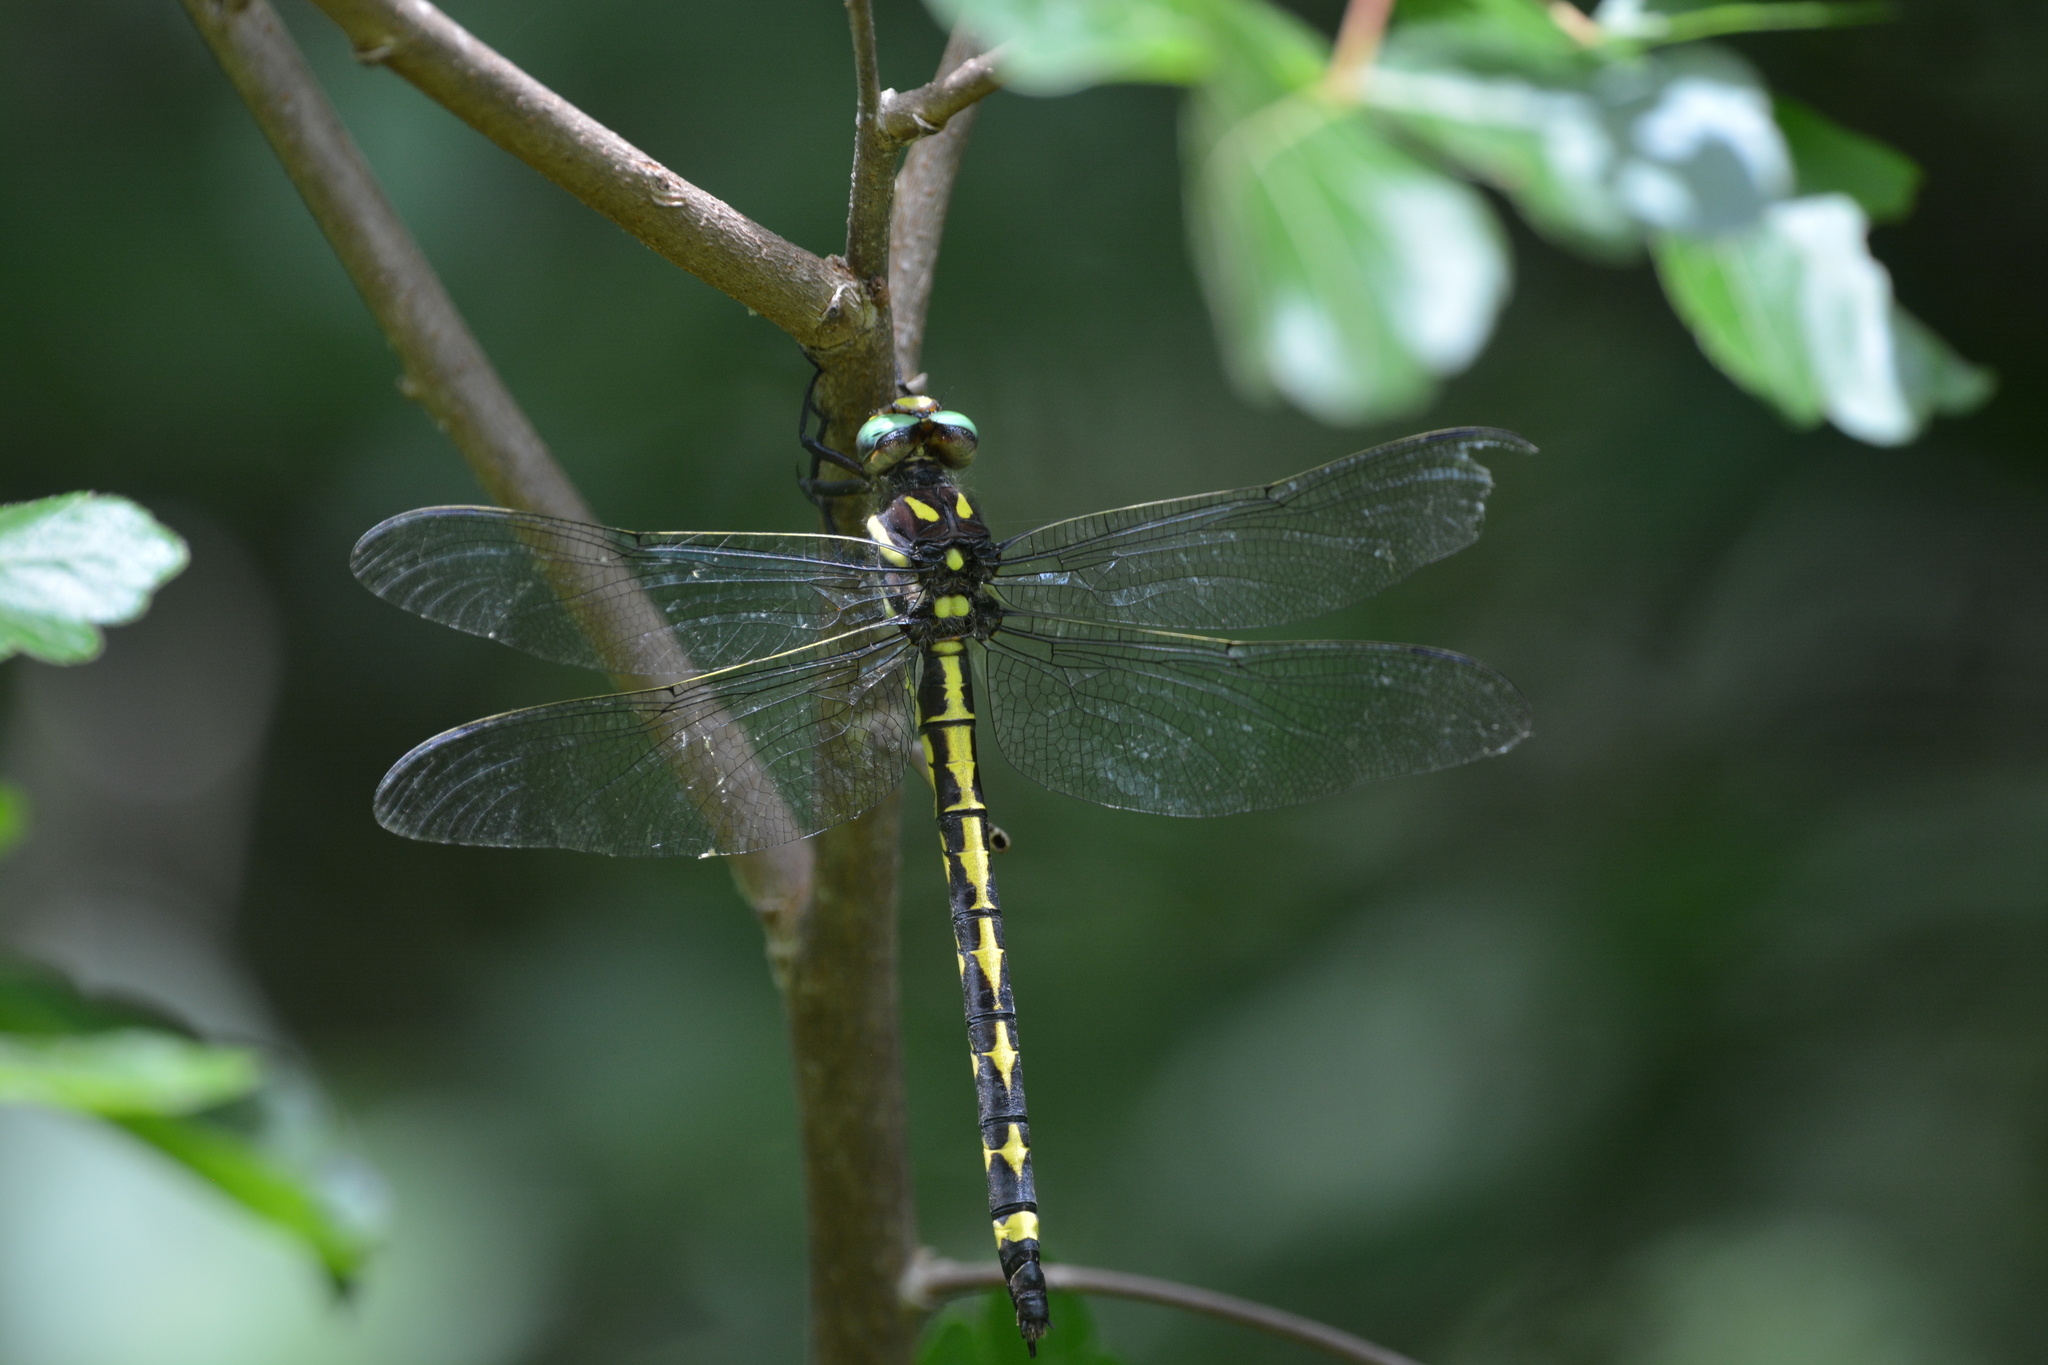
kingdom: Animalia
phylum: Arthropoda
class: Insecta
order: Odonata
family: Cordulegastridae
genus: Cordulegaster
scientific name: Cordulegaster obliqua
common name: Arrowhead spiketail
